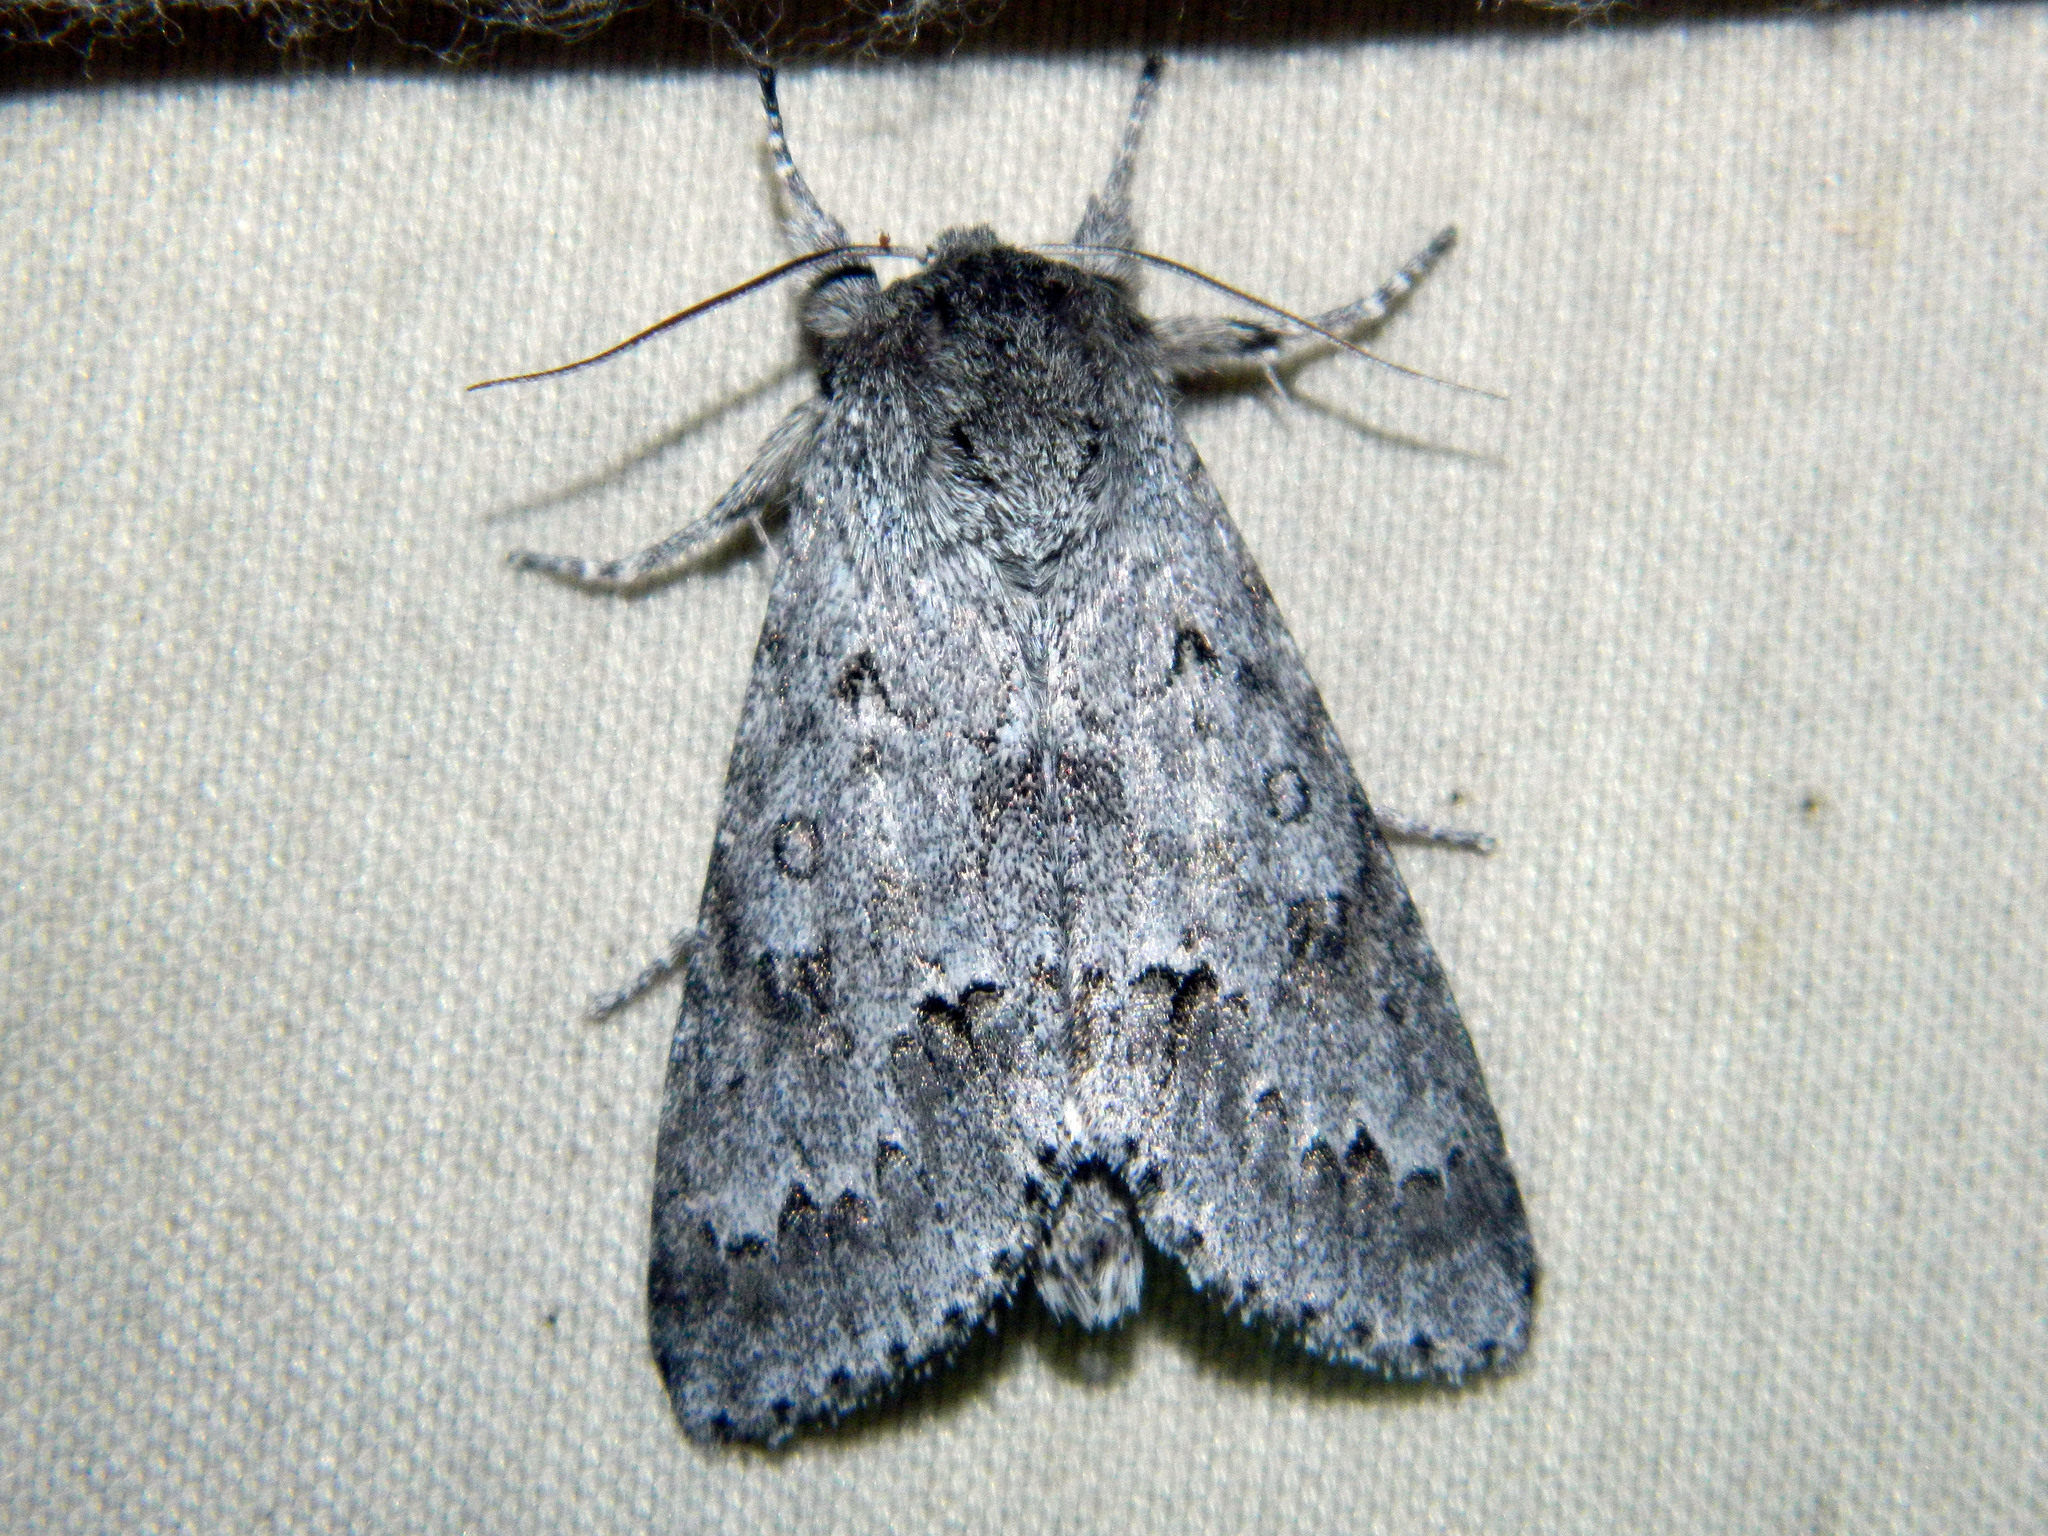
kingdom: Animalia
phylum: Arthropoda
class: Insecta
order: Lepidoptera
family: Noctuidae
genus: Acronicta
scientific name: Acronicta insita
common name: Large gray dagger
